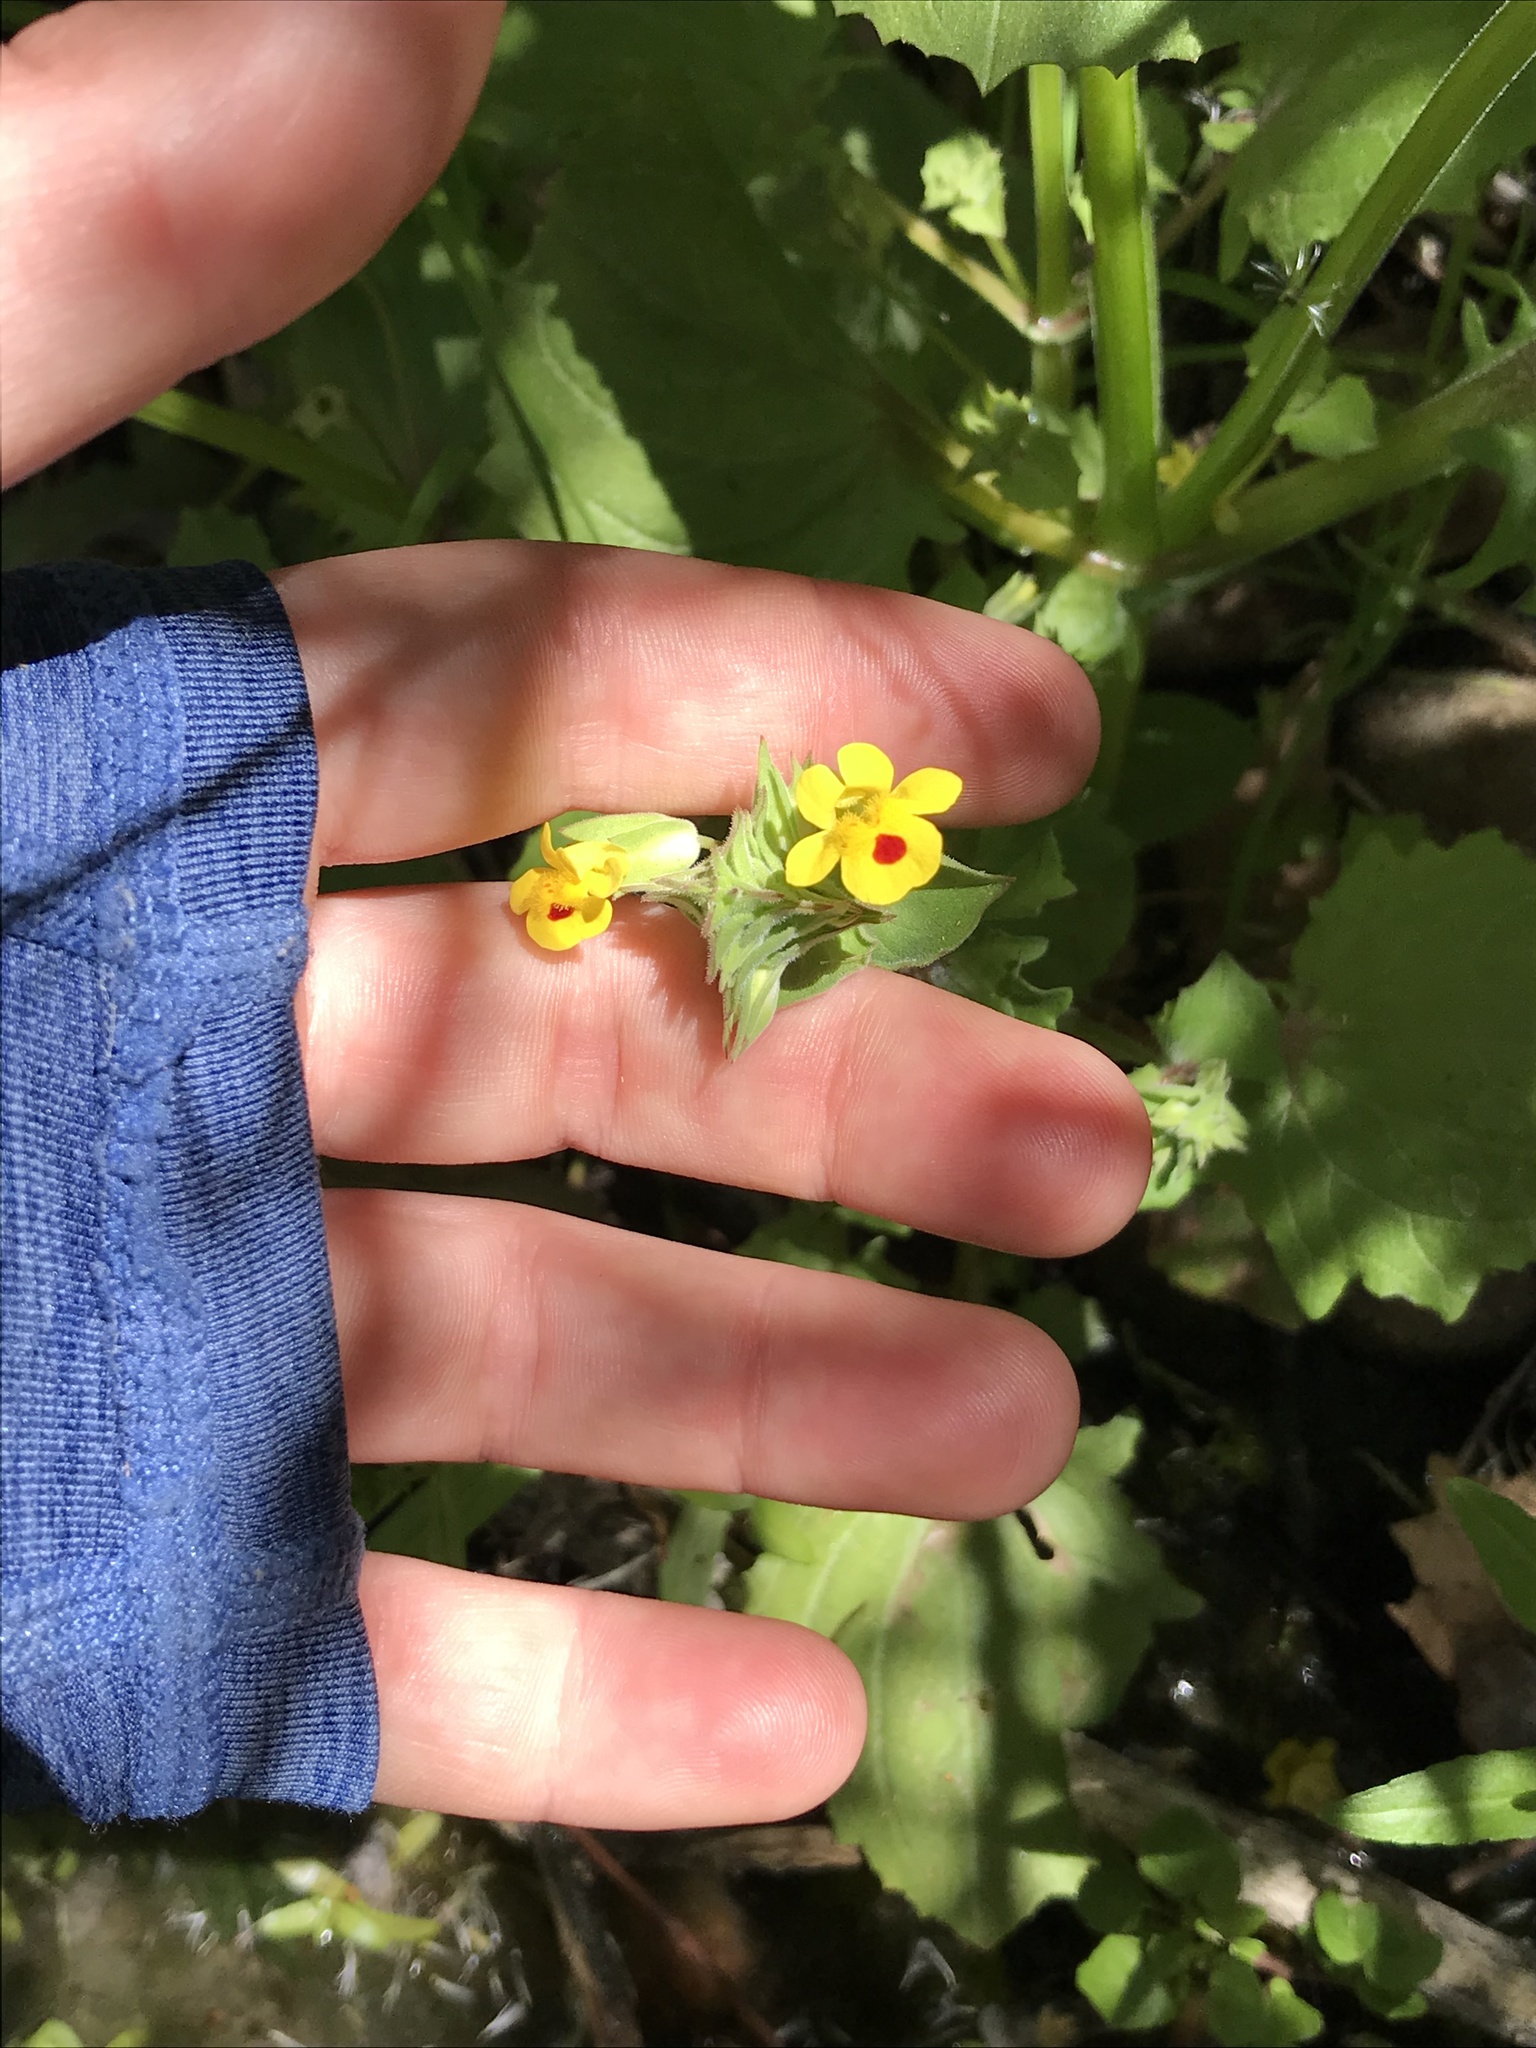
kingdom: Plantae
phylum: Tracheophyta
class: Magnoliopsida
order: Lamiales
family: Phrymaceae
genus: Erythranthe
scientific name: Erythranthe nasuta
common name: Sooke monkeyflower
